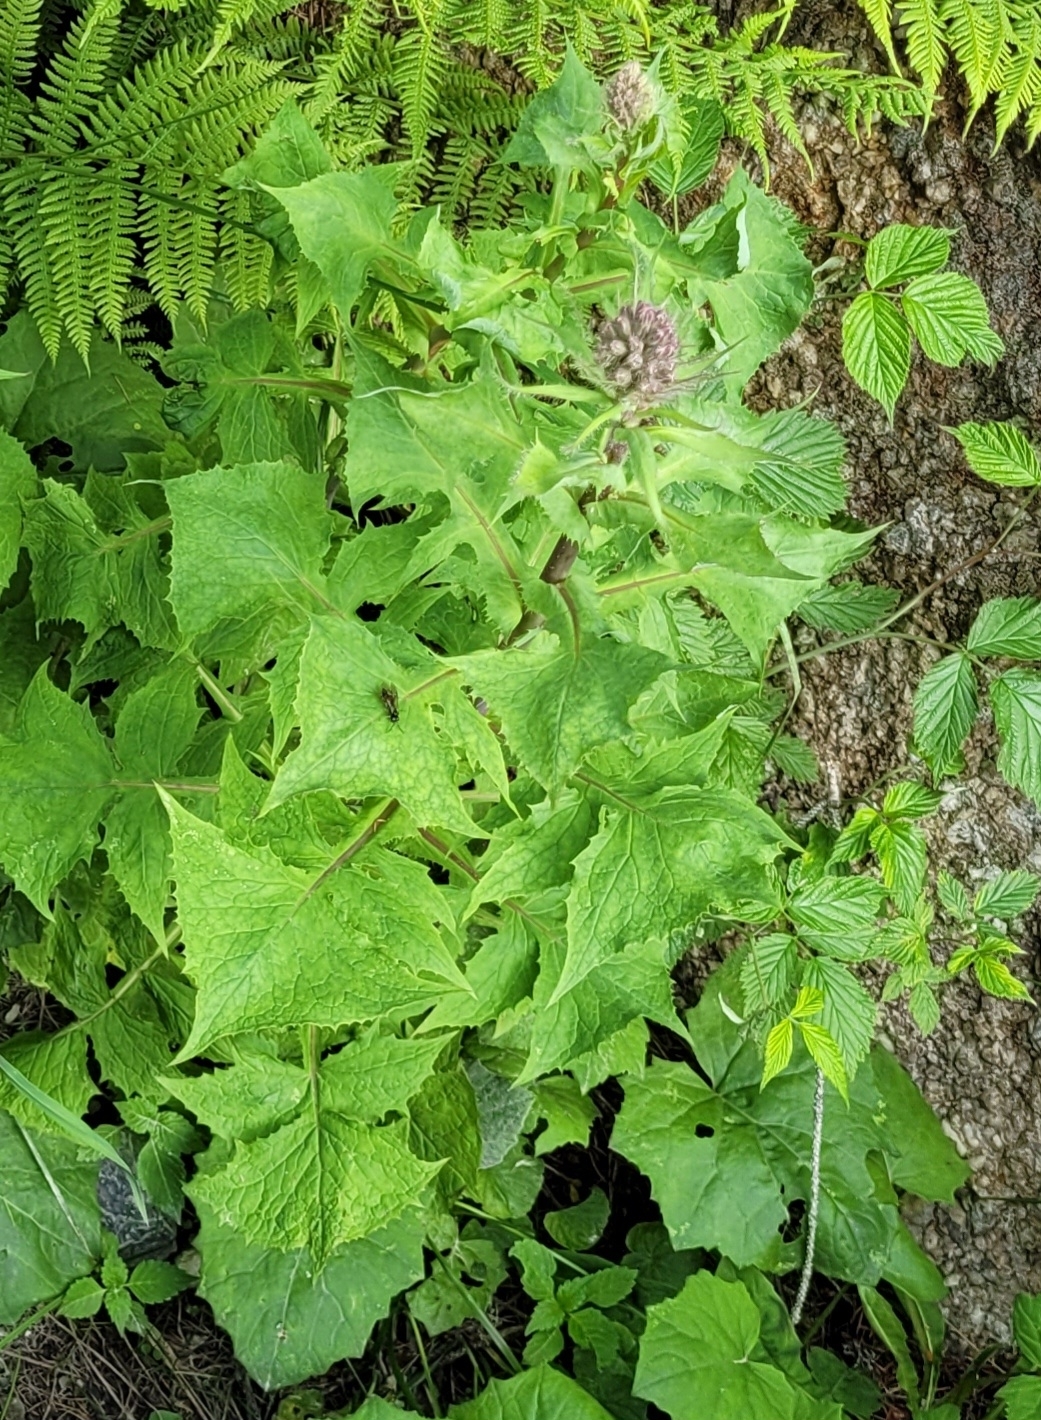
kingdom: Plantae
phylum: Tracheophyta
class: Magnoliopsida
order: Asterales
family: Asteraceae
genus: Cicerbita
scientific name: Cicerbita alpina
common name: Alpine blue-sow-thistle
